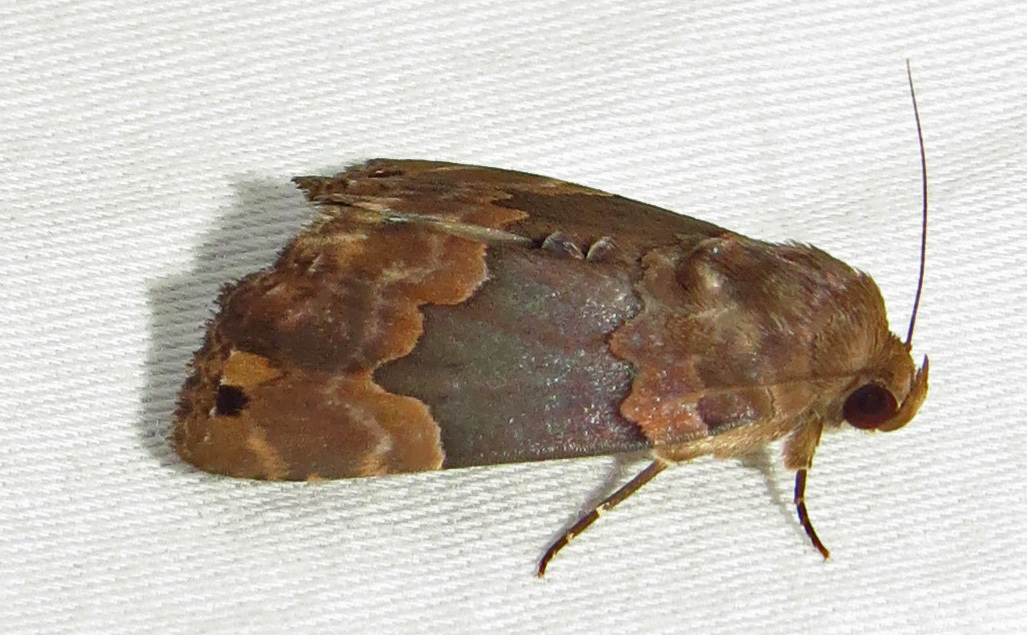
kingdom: Animalia
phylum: Arthropoda
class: Insecta
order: Lepidoptera
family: Erebidae
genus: Dinumma
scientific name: Dinumma deponens
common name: Purplish moth
